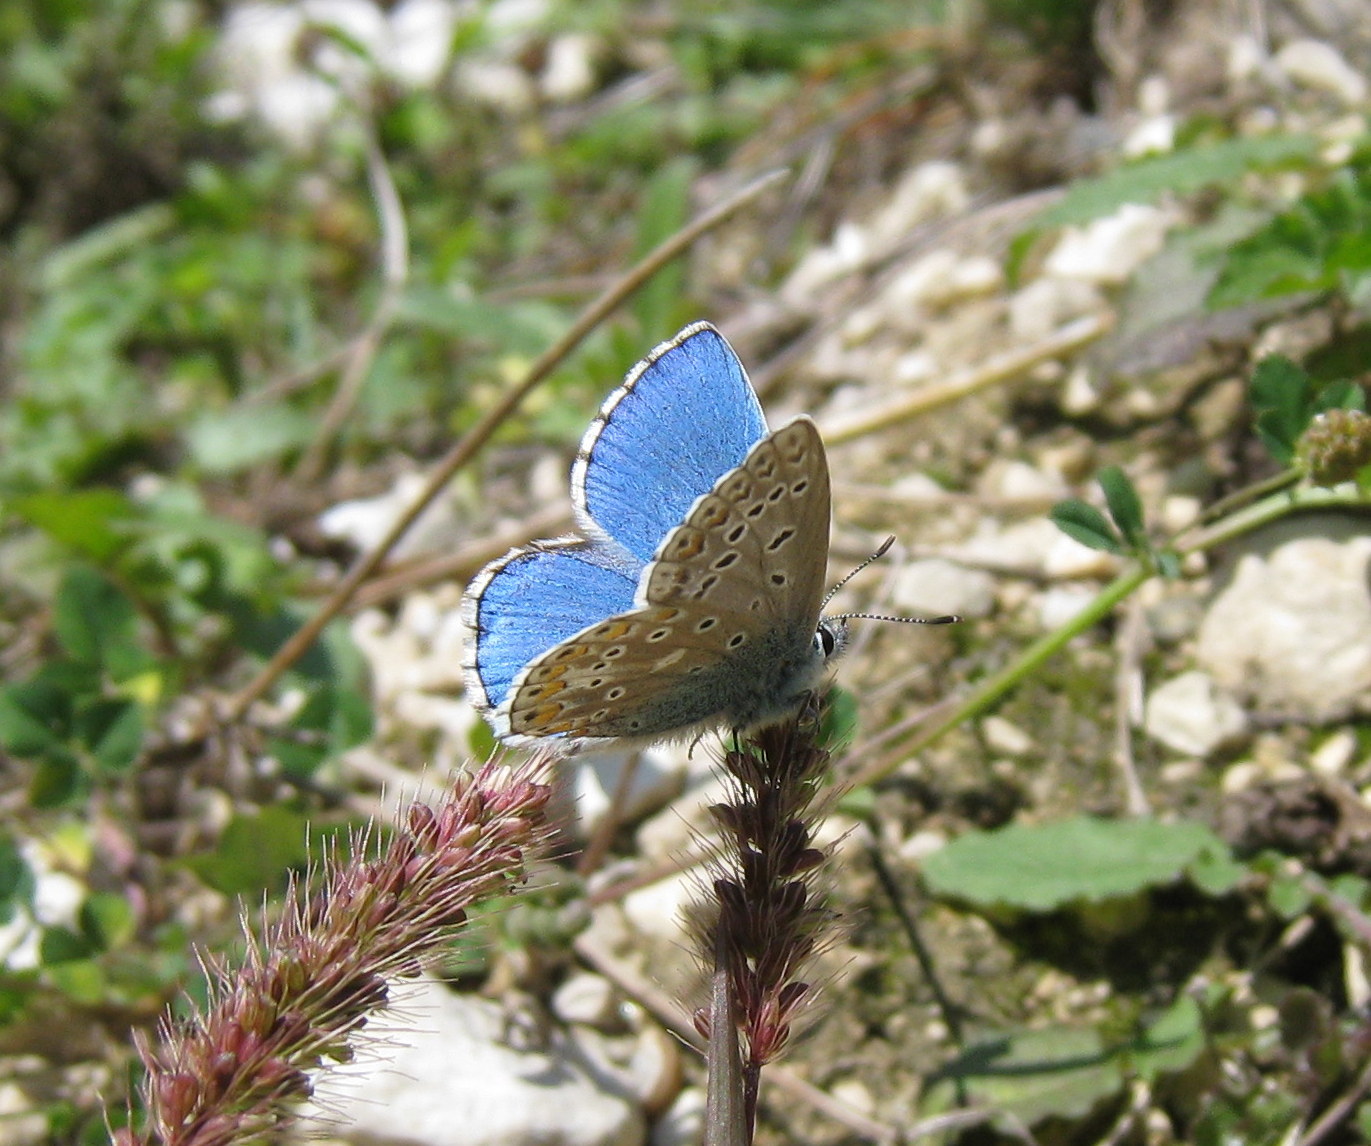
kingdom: Animalia
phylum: Arthropoda
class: Insecta
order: Lepidoptera
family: Lycaenidae
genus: Lysandra
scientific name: Lysandra bellargus
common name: Adonis blue
